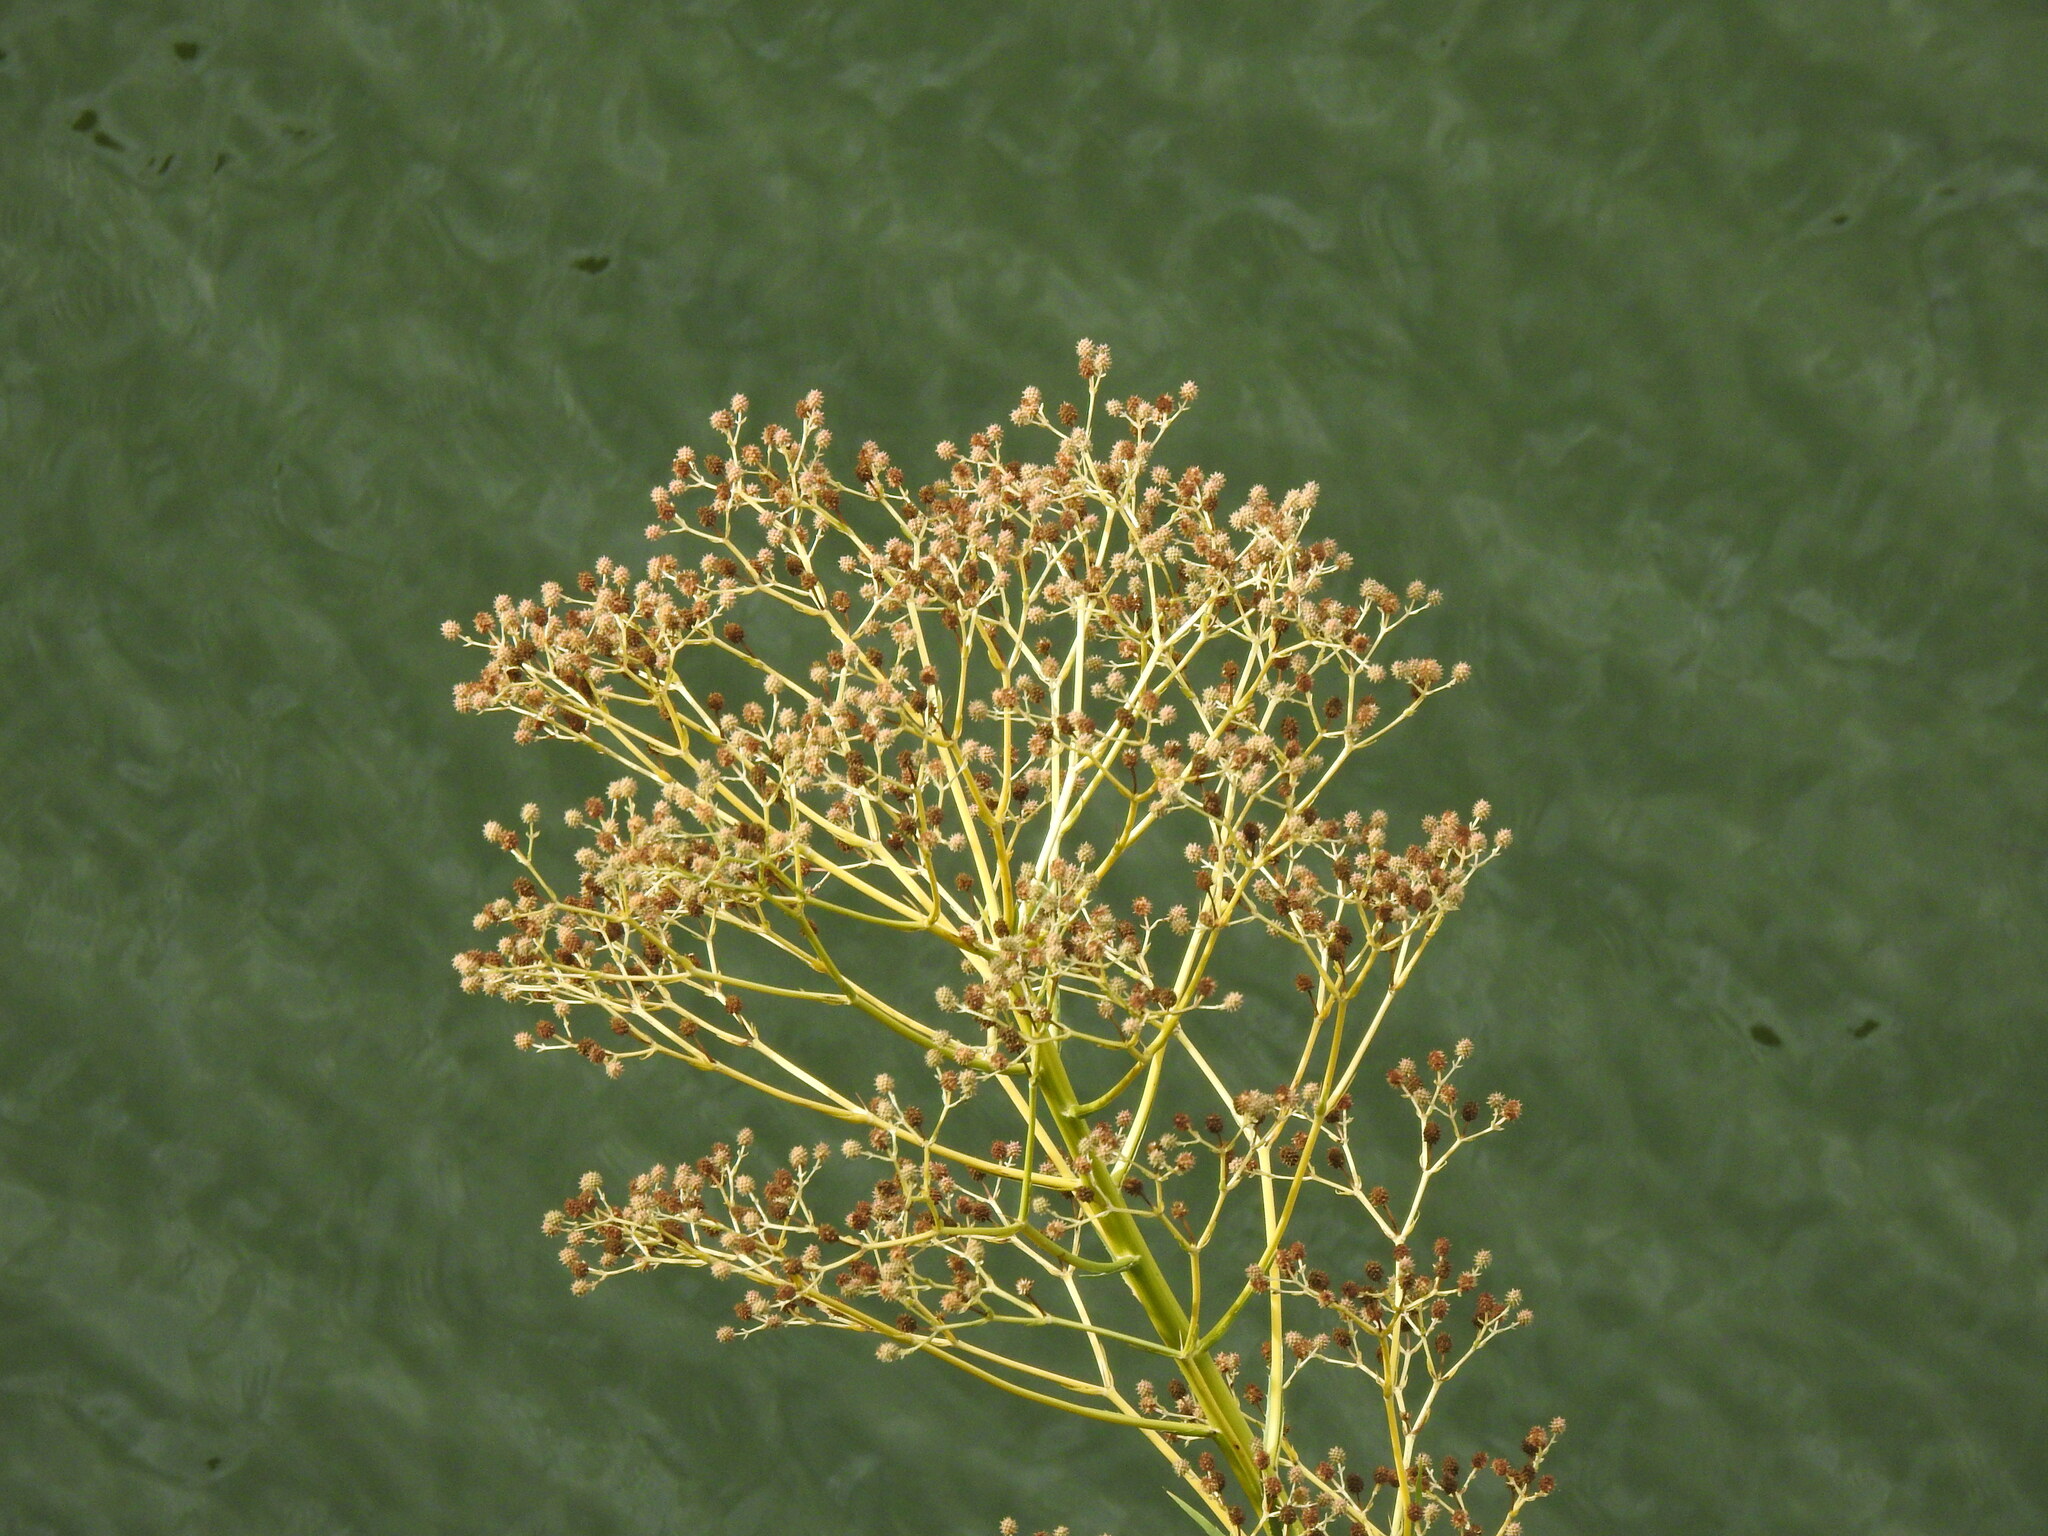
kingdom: Plantae
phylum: Tracheophyta
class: Magnoliopsida
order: Apiales
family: Apiaceae
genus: Eryngium
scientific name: Eryngium pandanifolium
